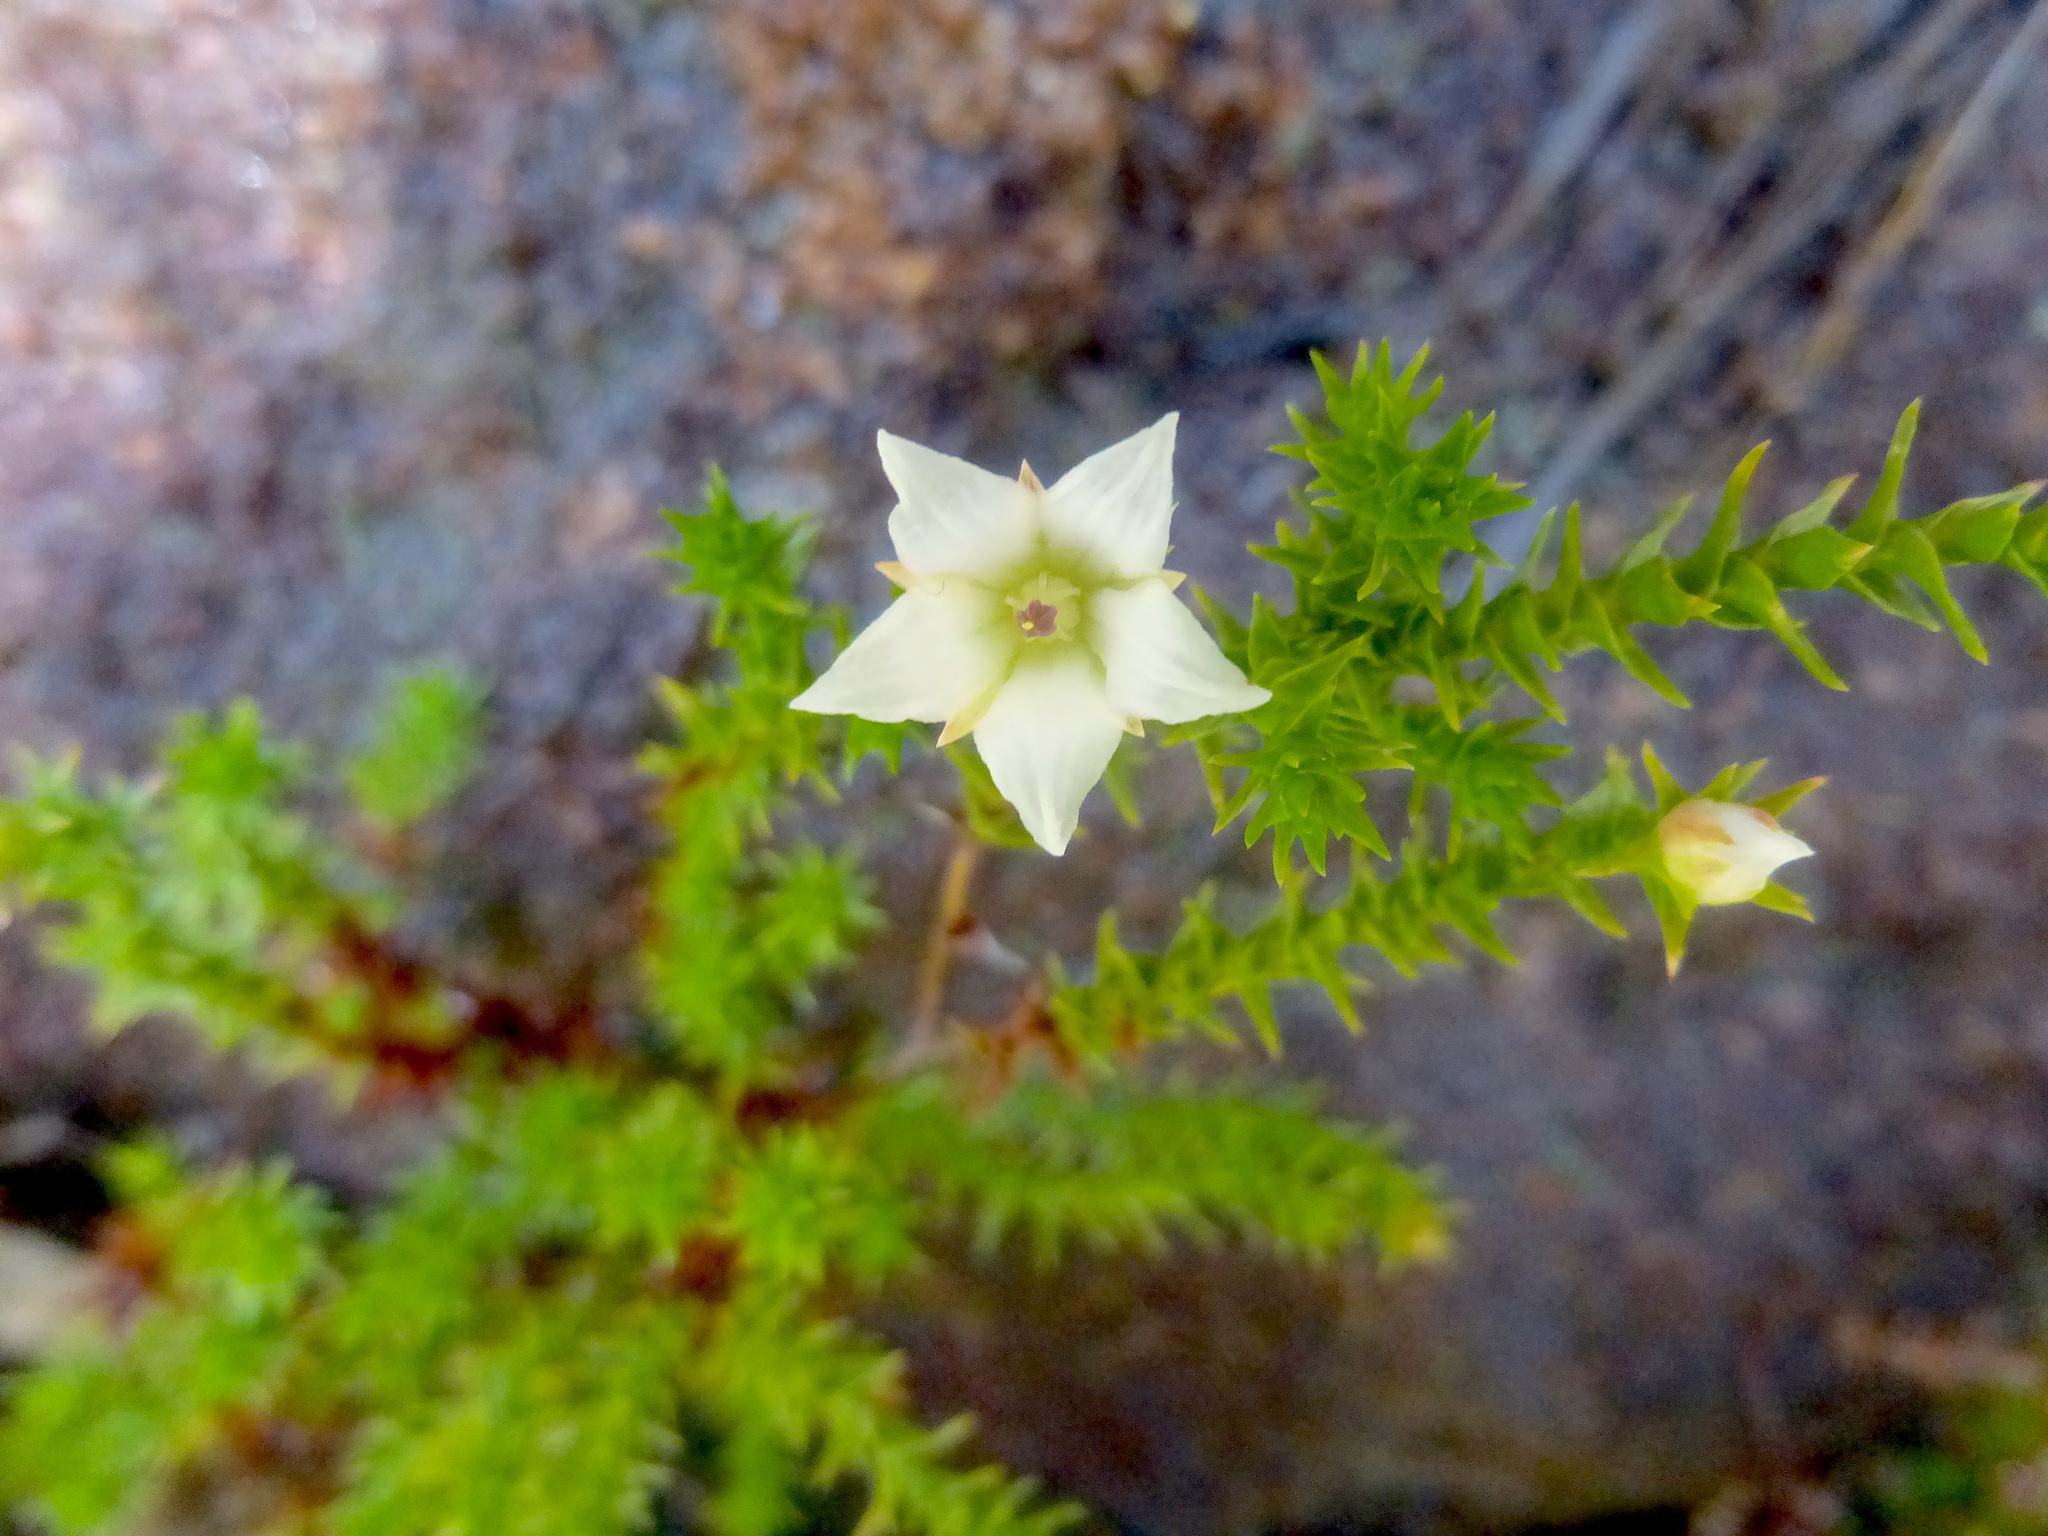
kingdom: Plantae
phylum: Tracheophyta
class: Magnoliopsida
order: Ericales
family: Ericaceae
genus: Sprengelia
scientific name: Sprengelia monticola
